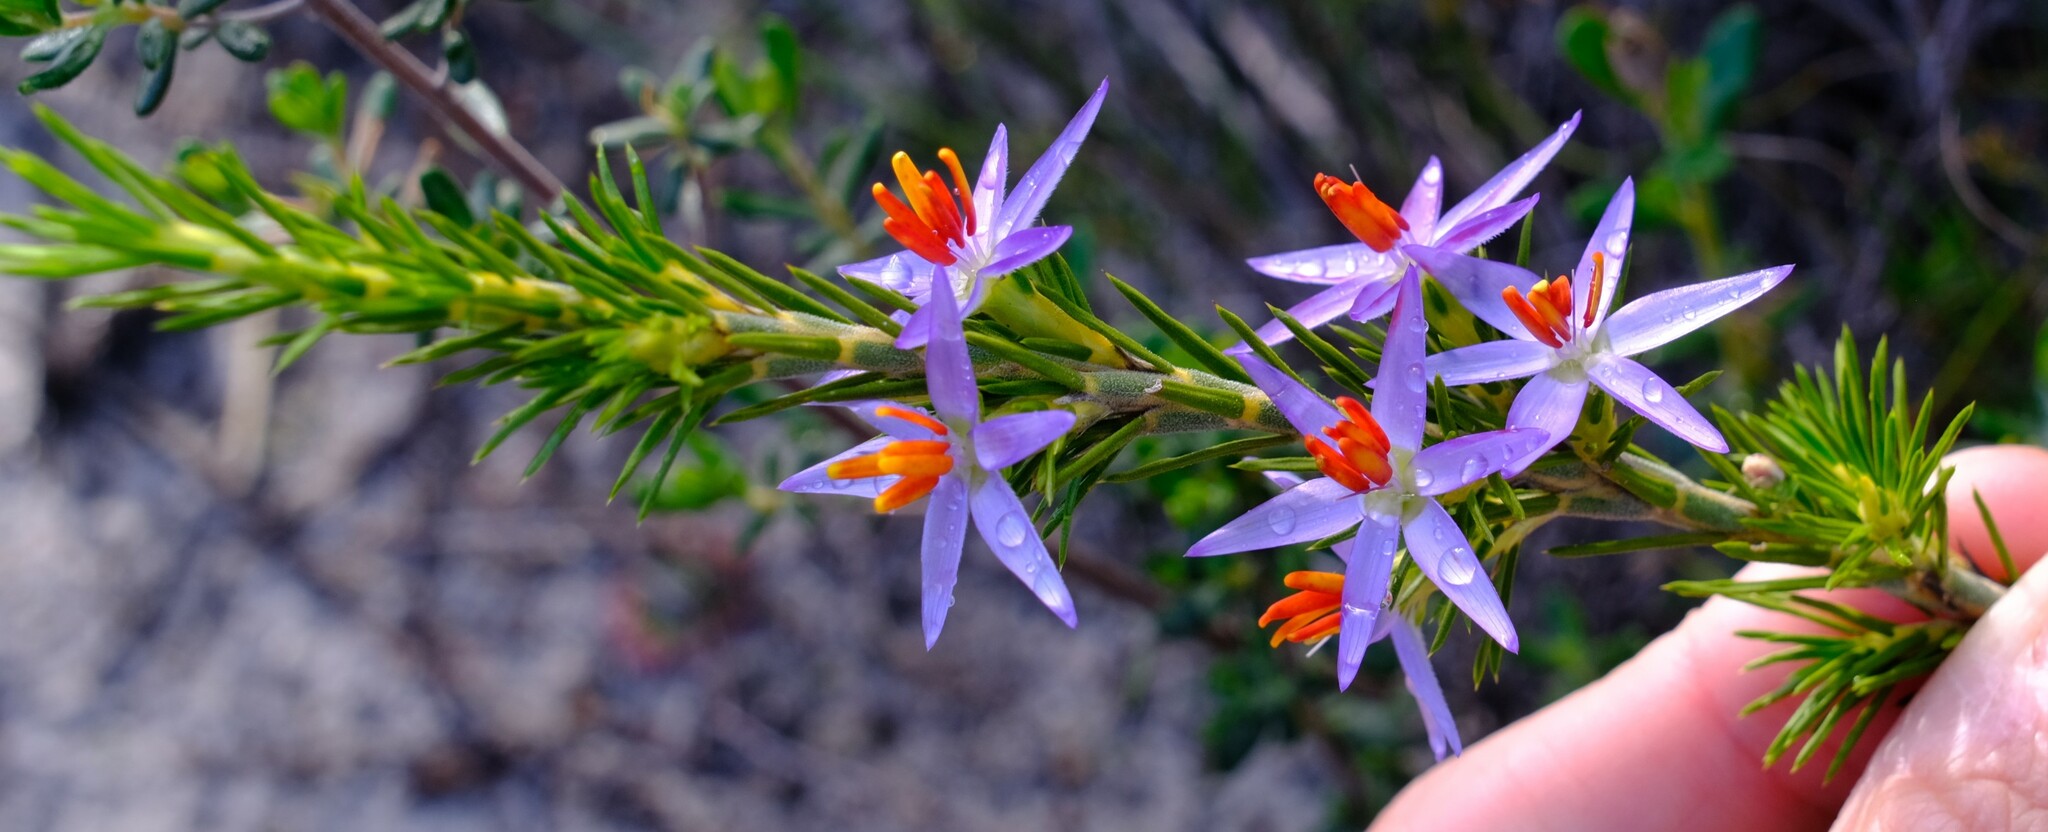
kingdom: Plantae
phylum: Tracheophyta
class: Liliopsida
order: Arecales
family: Dasypogonaceae
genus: Calectasia
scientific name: Calectasia narragara
